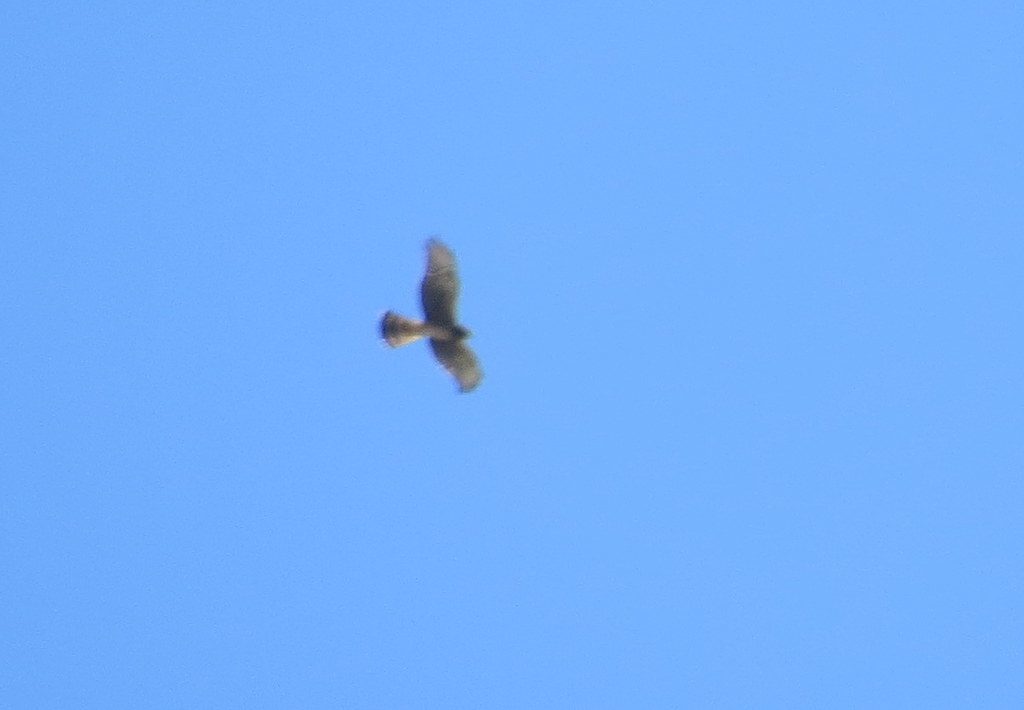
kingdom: Animalia
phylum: Chordata
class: Aves
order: Accipitriformes
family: Accipitridae
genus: Circus
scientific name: Circus buffoni
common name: Long-winged harrier
